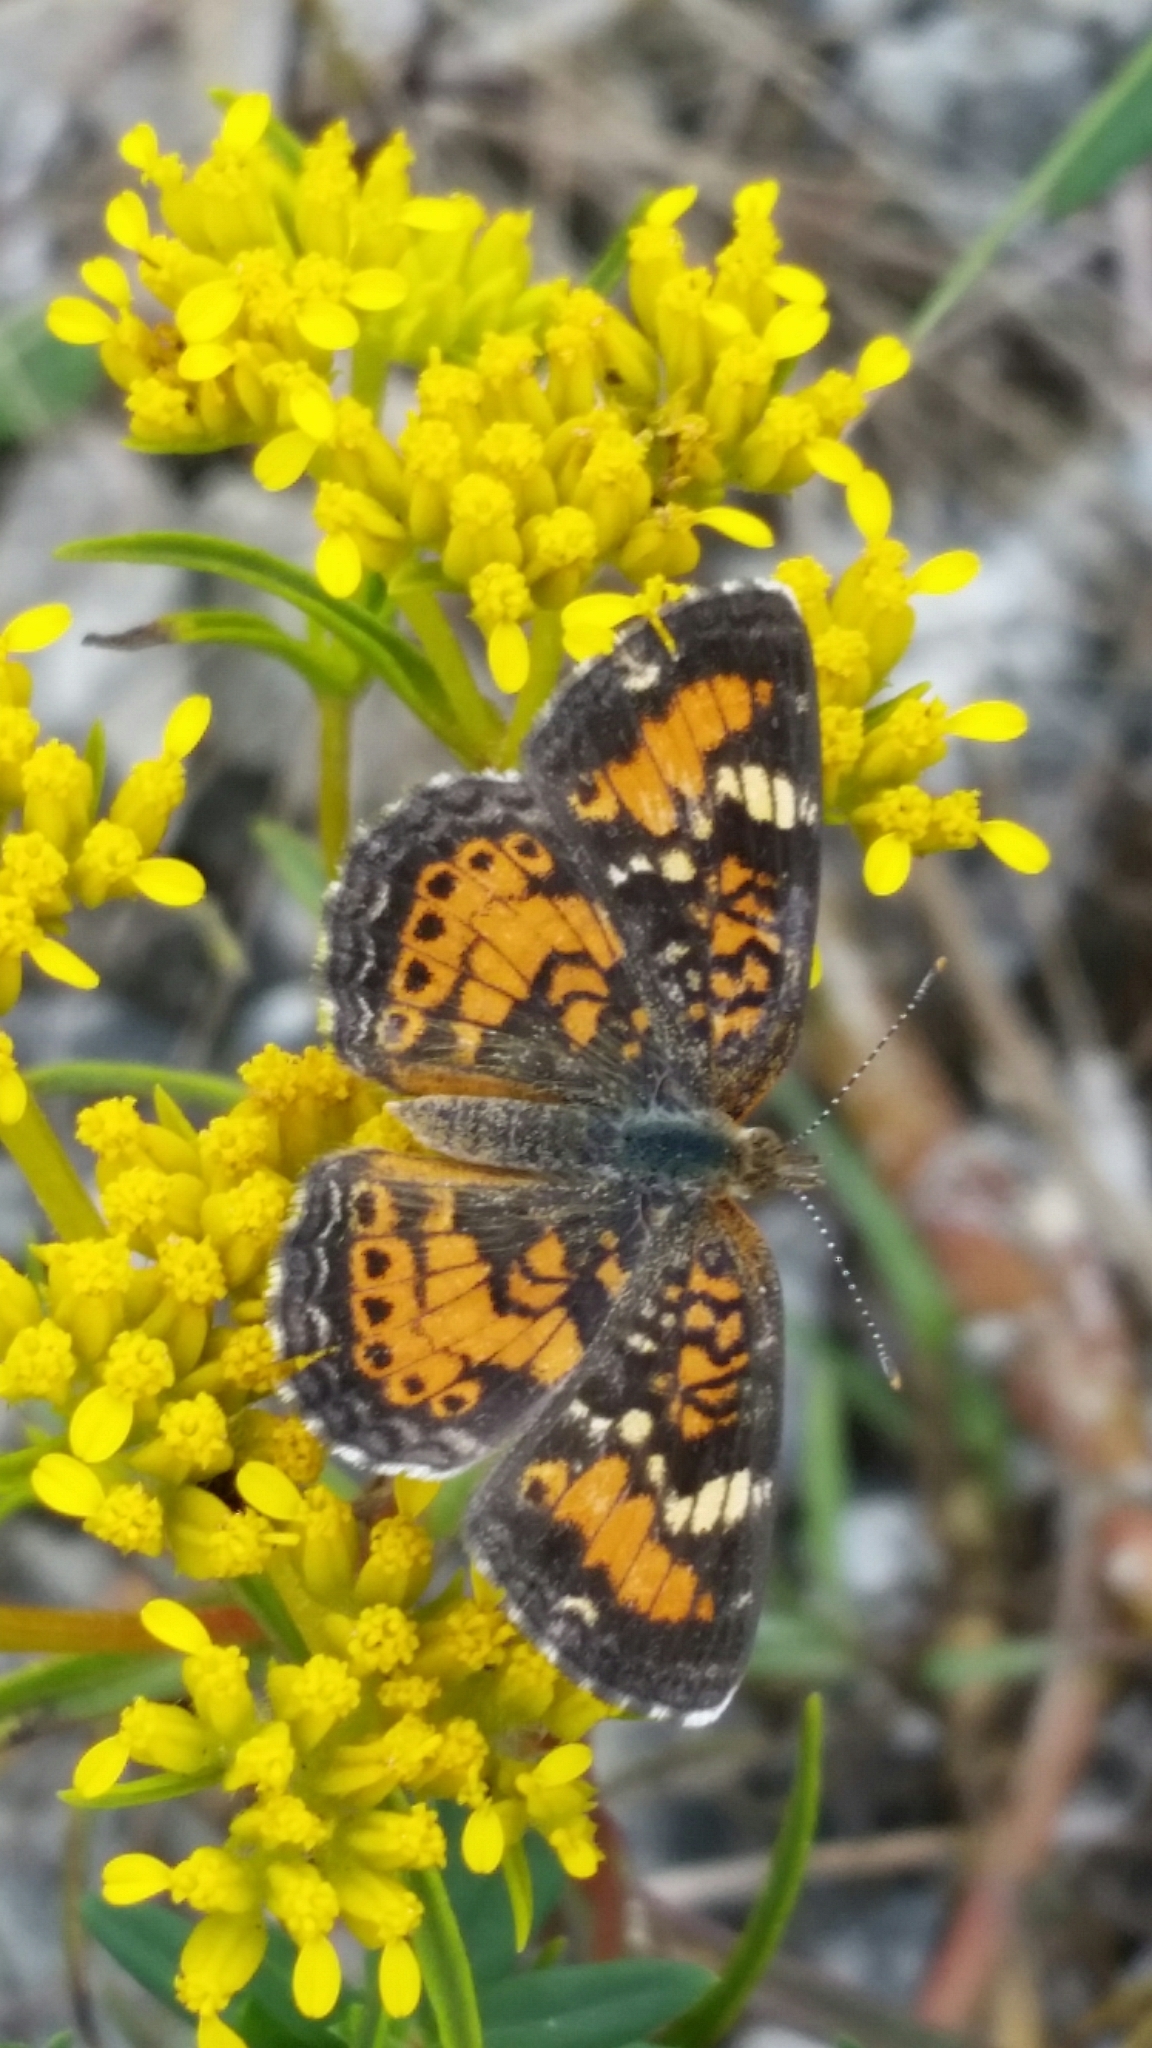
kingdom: Animalia
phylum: Arthropoda
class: Insecta
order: Lepidoptera
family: Nymphalidae
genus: Phyciodes
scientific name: Phyciodes phaon
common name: Phaon crescent
